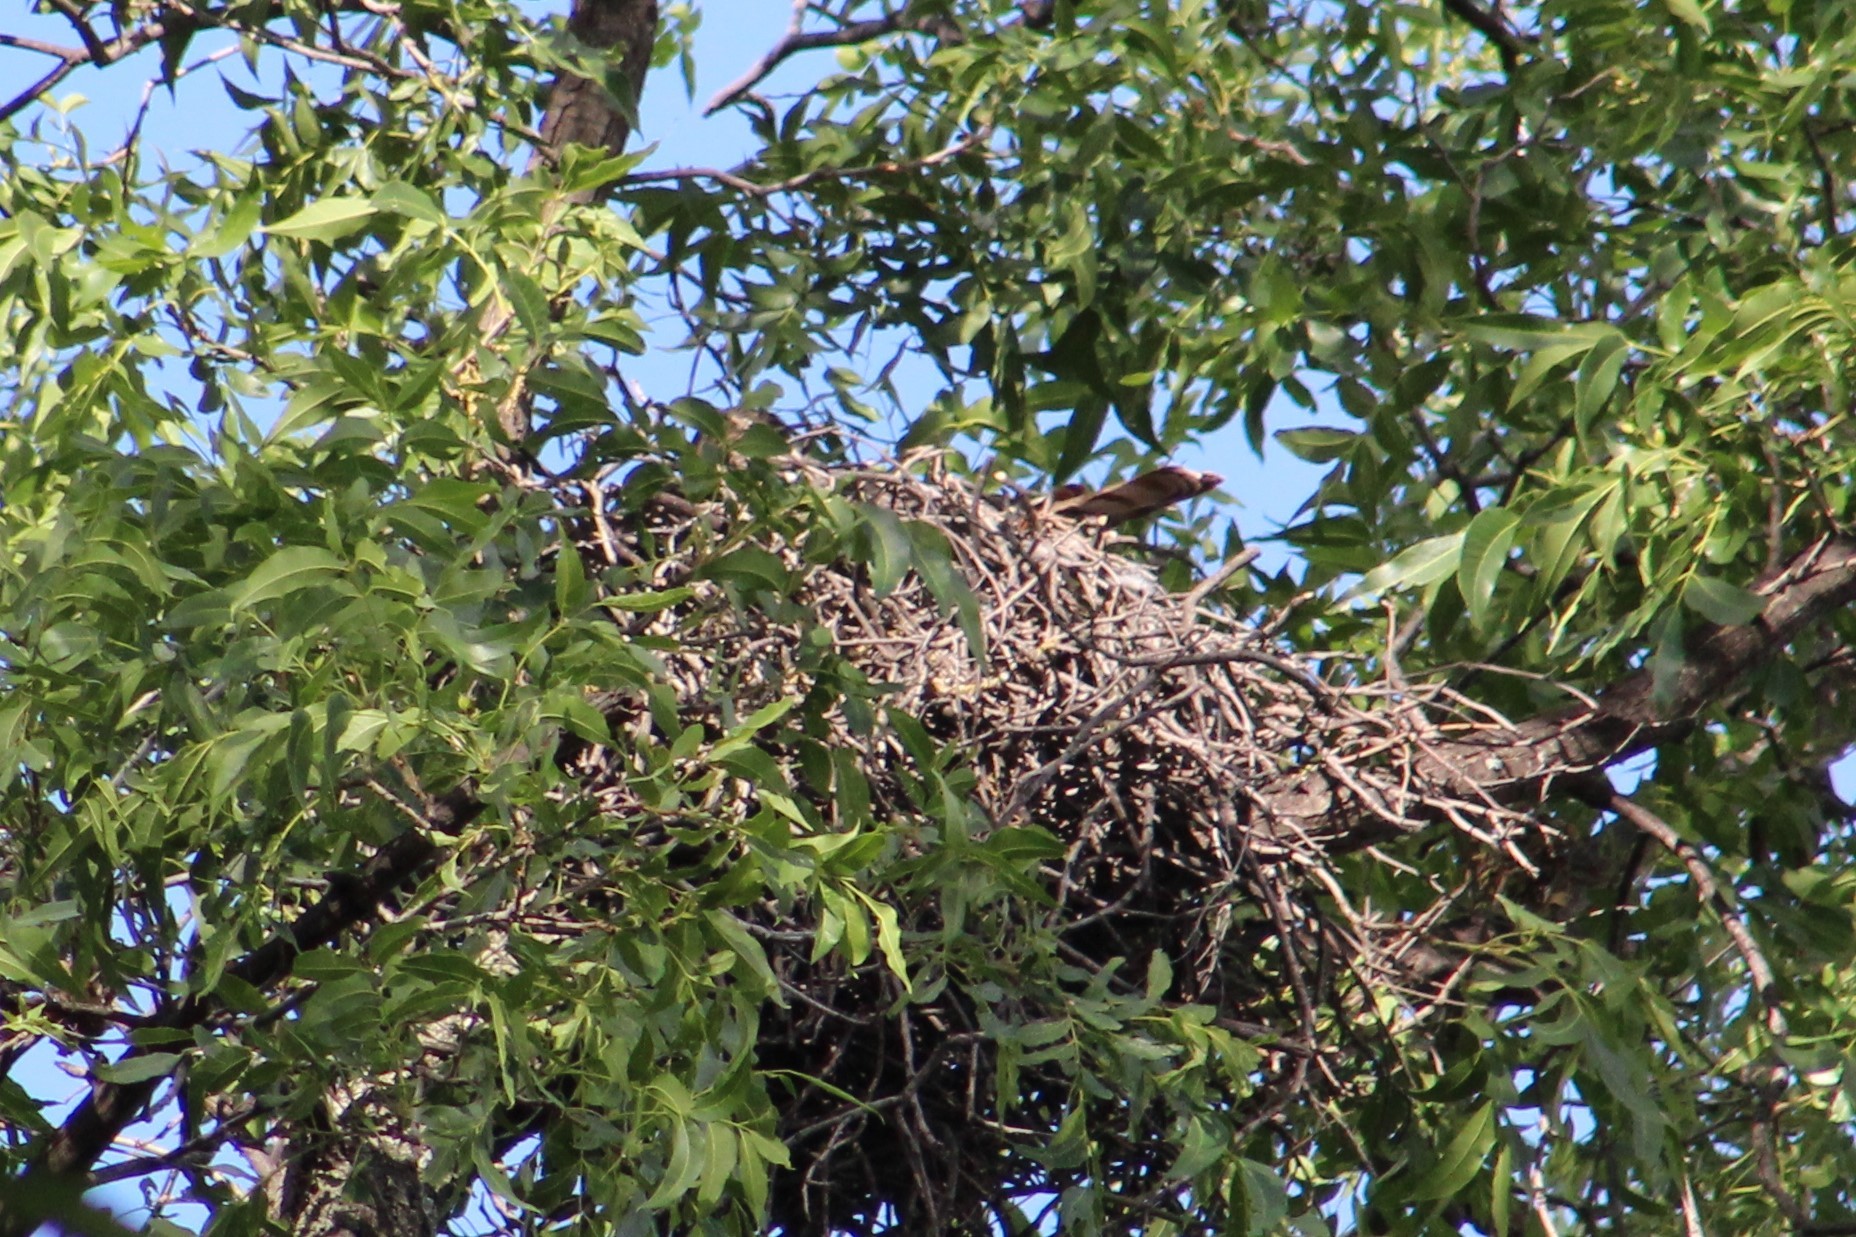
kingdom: Animalia
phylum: Chordata
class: Aves
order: Accipitriformes
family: Accipitridae
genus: Accipiter
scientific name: Accipiter cooperii
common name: Cooper's hawk
